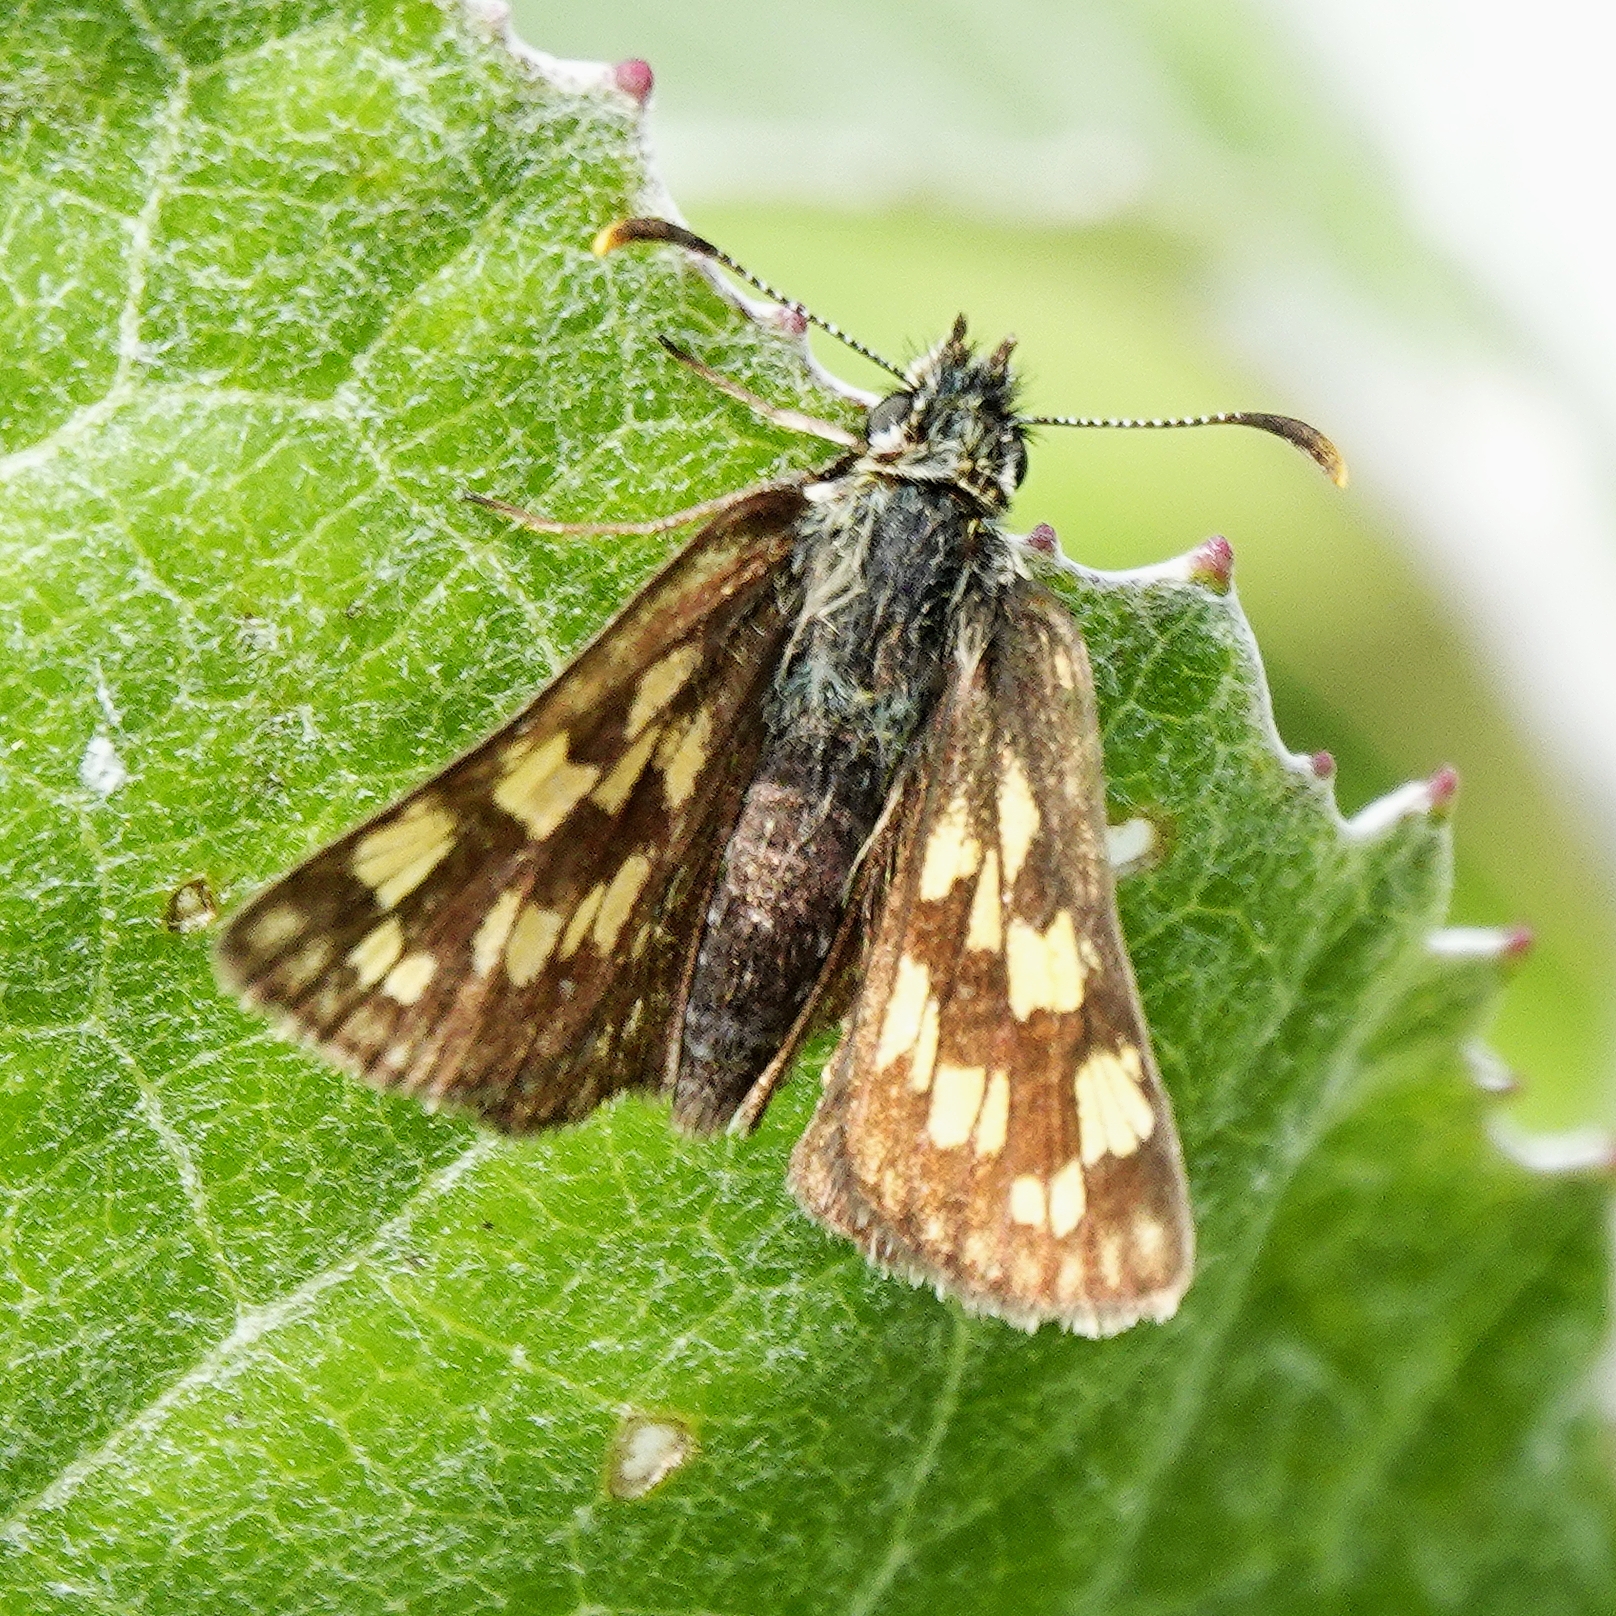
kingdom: Animalia
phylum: Arthropoda
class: Insecta
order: Lepidoptera
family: Hesperiidae
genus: Carterocephalus
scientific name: Carterocephalus palaemon
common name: Chequered skipper
